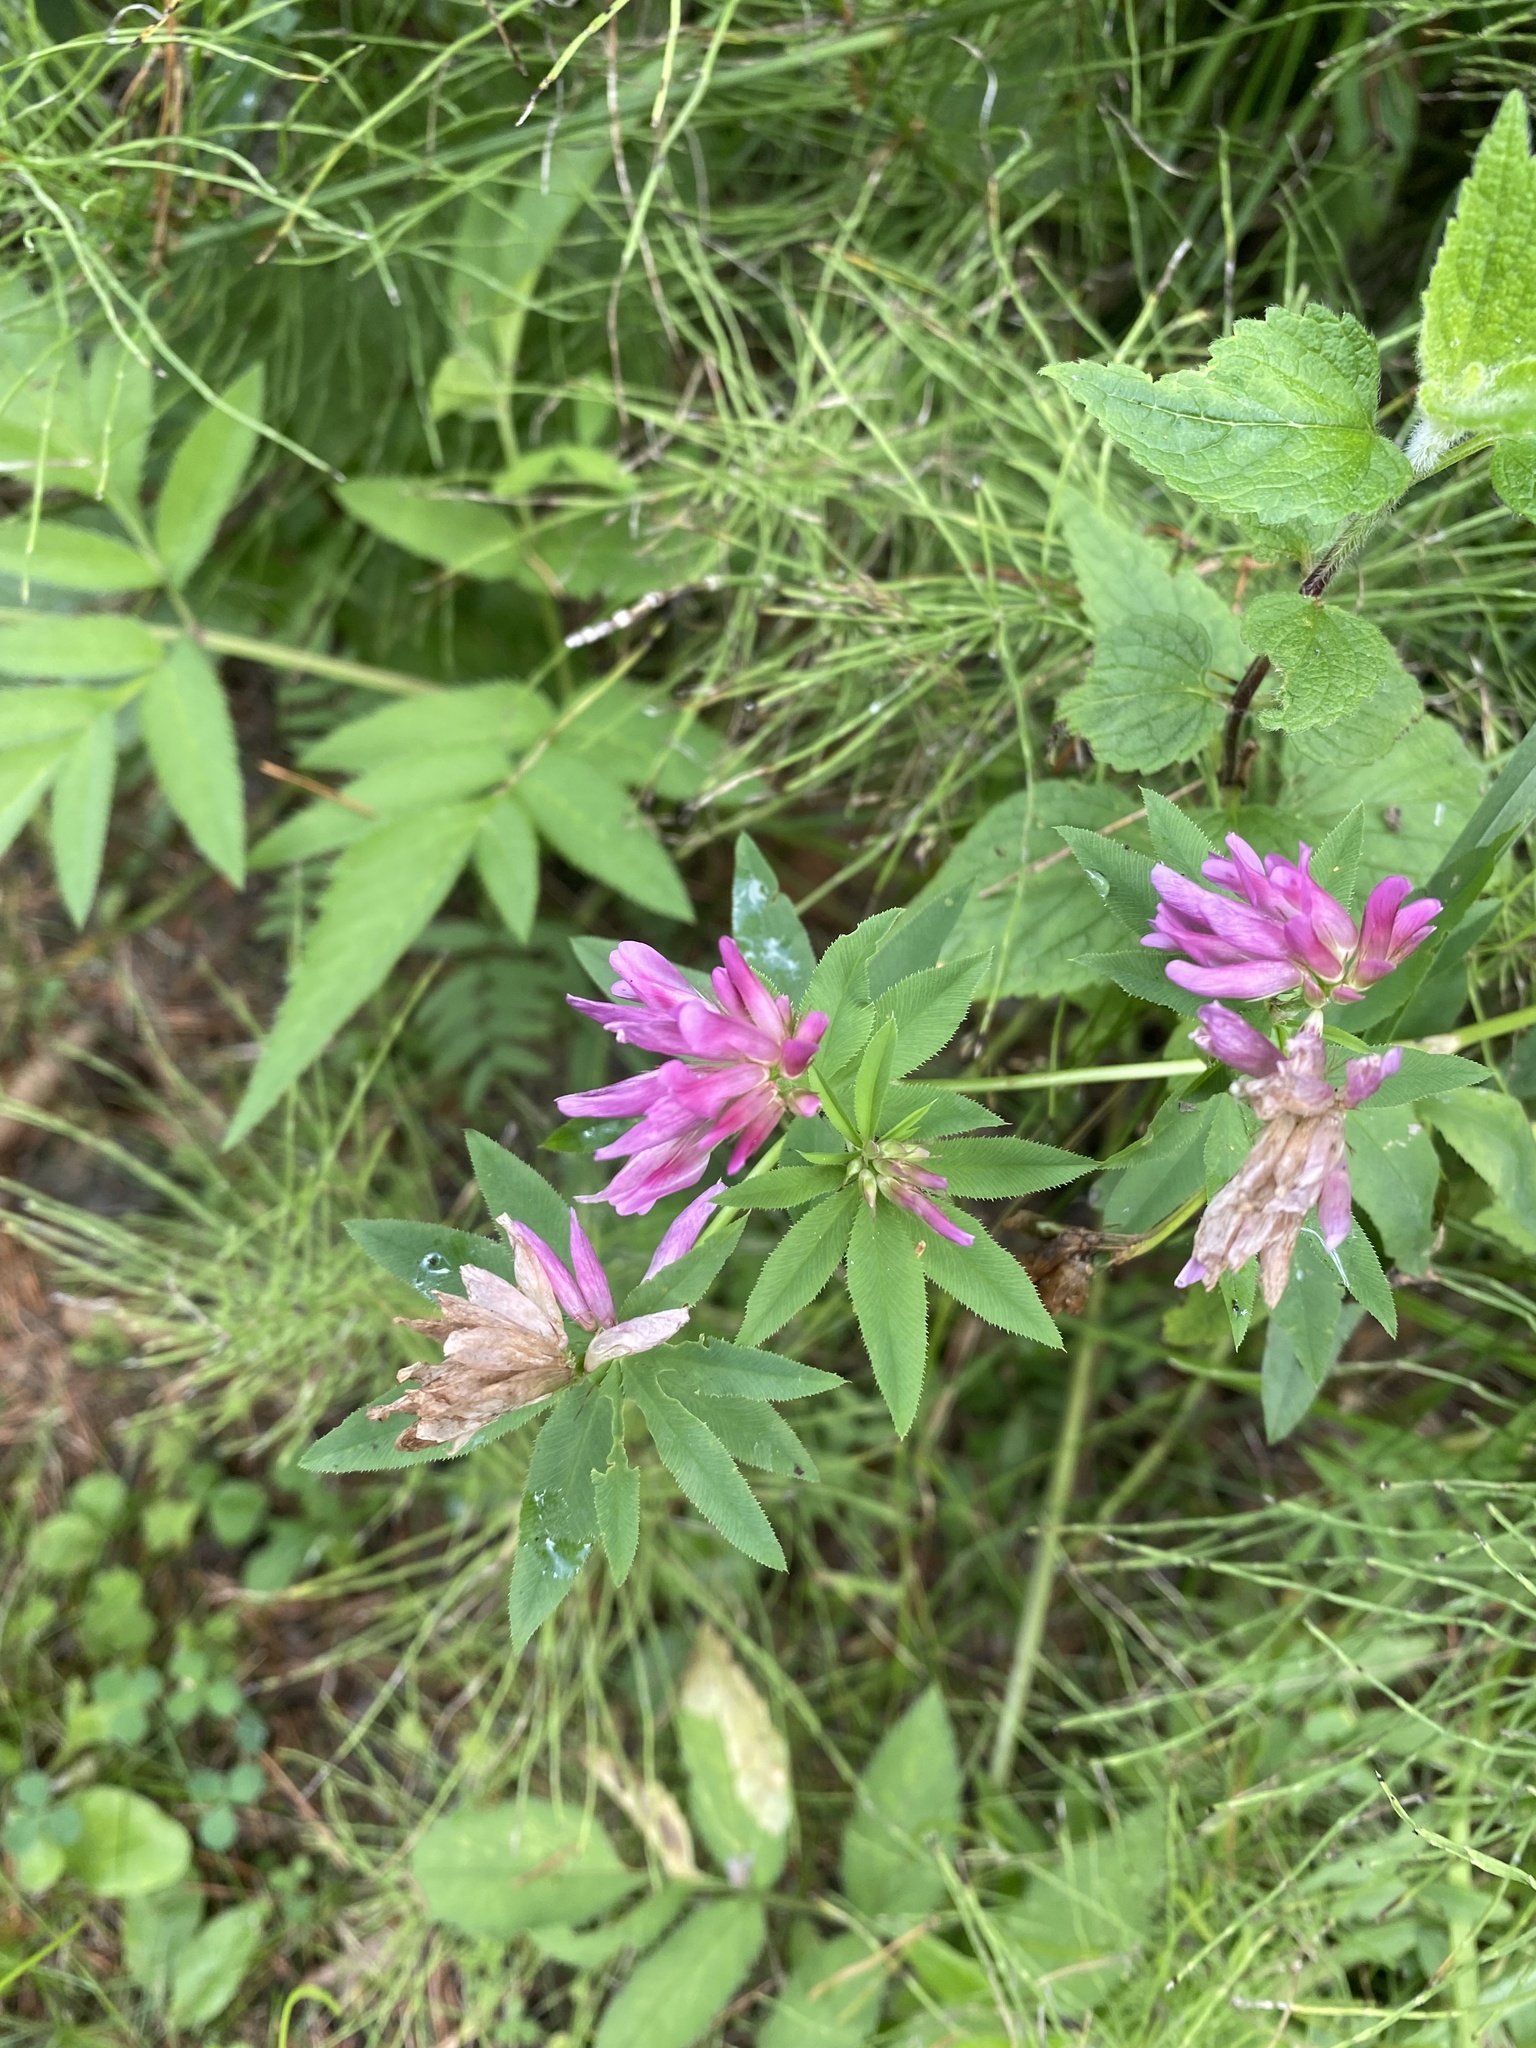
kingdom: Plantae
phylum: Tracheophyta
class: Magnoliopsida
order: Fabales
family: Fabaceae
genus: Trifolium
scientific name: Trifolium lupinaster
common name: Lupine clover
